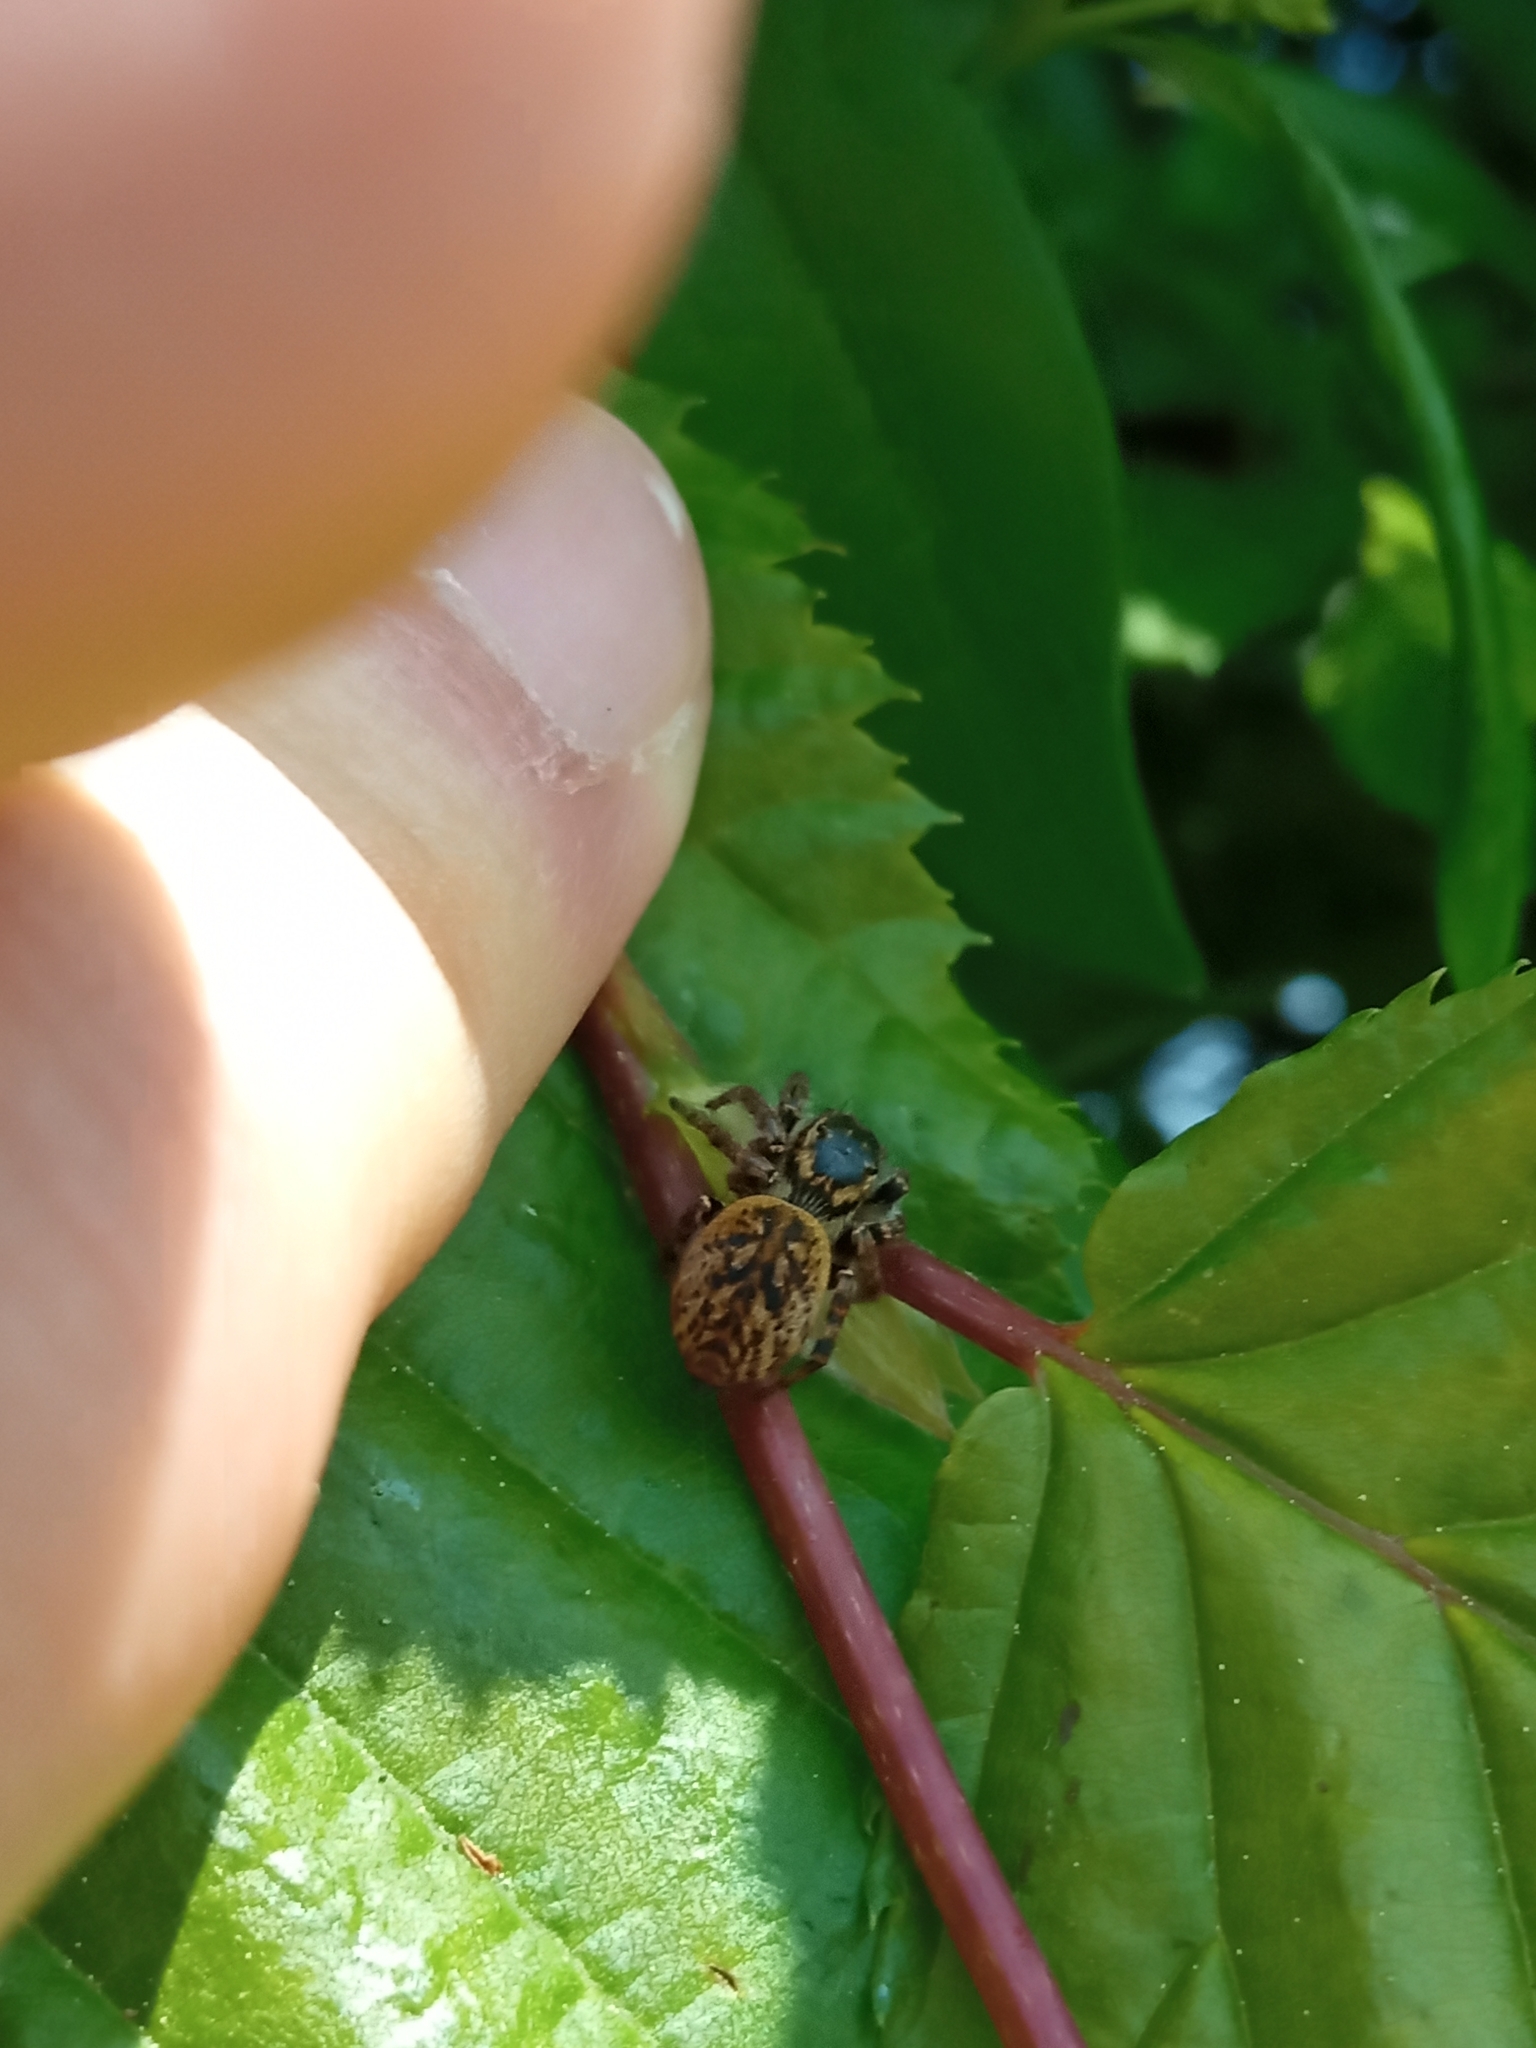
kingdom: Animalia
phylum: Arthropoda
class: Arachnida
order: Araneae
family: Salticidae
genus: Carrhotus
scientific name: Carrhotus xanthogramma
